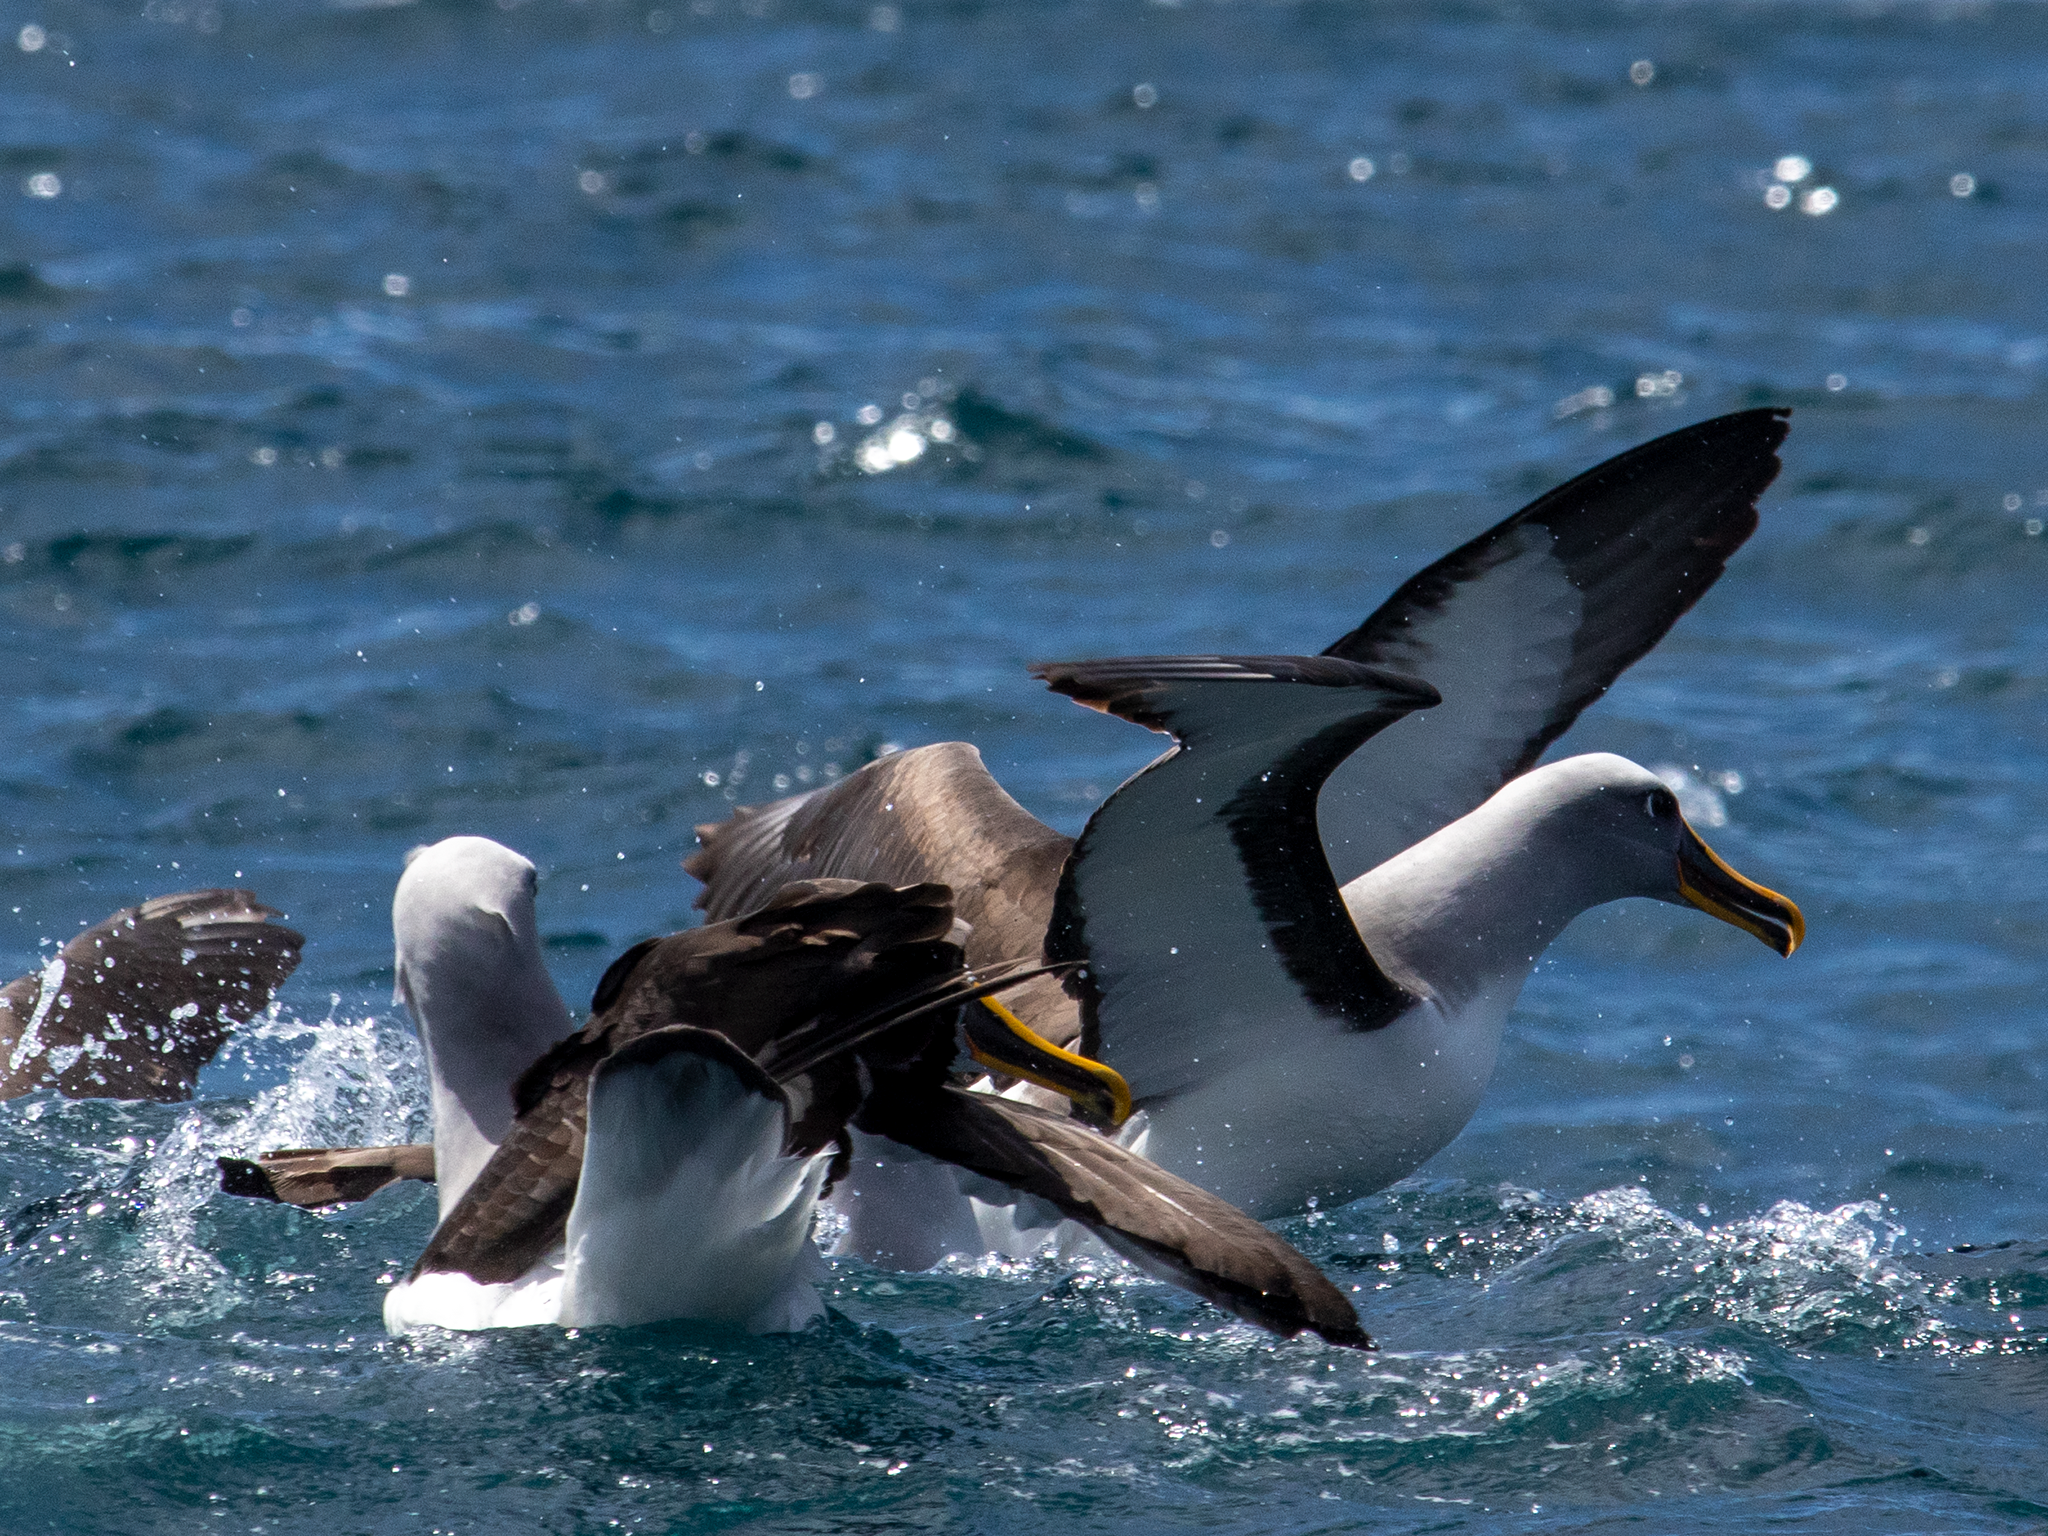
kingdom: Animalia
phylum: Chordata
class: Aves
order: Procellariiformes
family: Diomedeidae
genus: Thalassarche
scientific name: Thalassarche bulleri
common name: Buller's albatross
